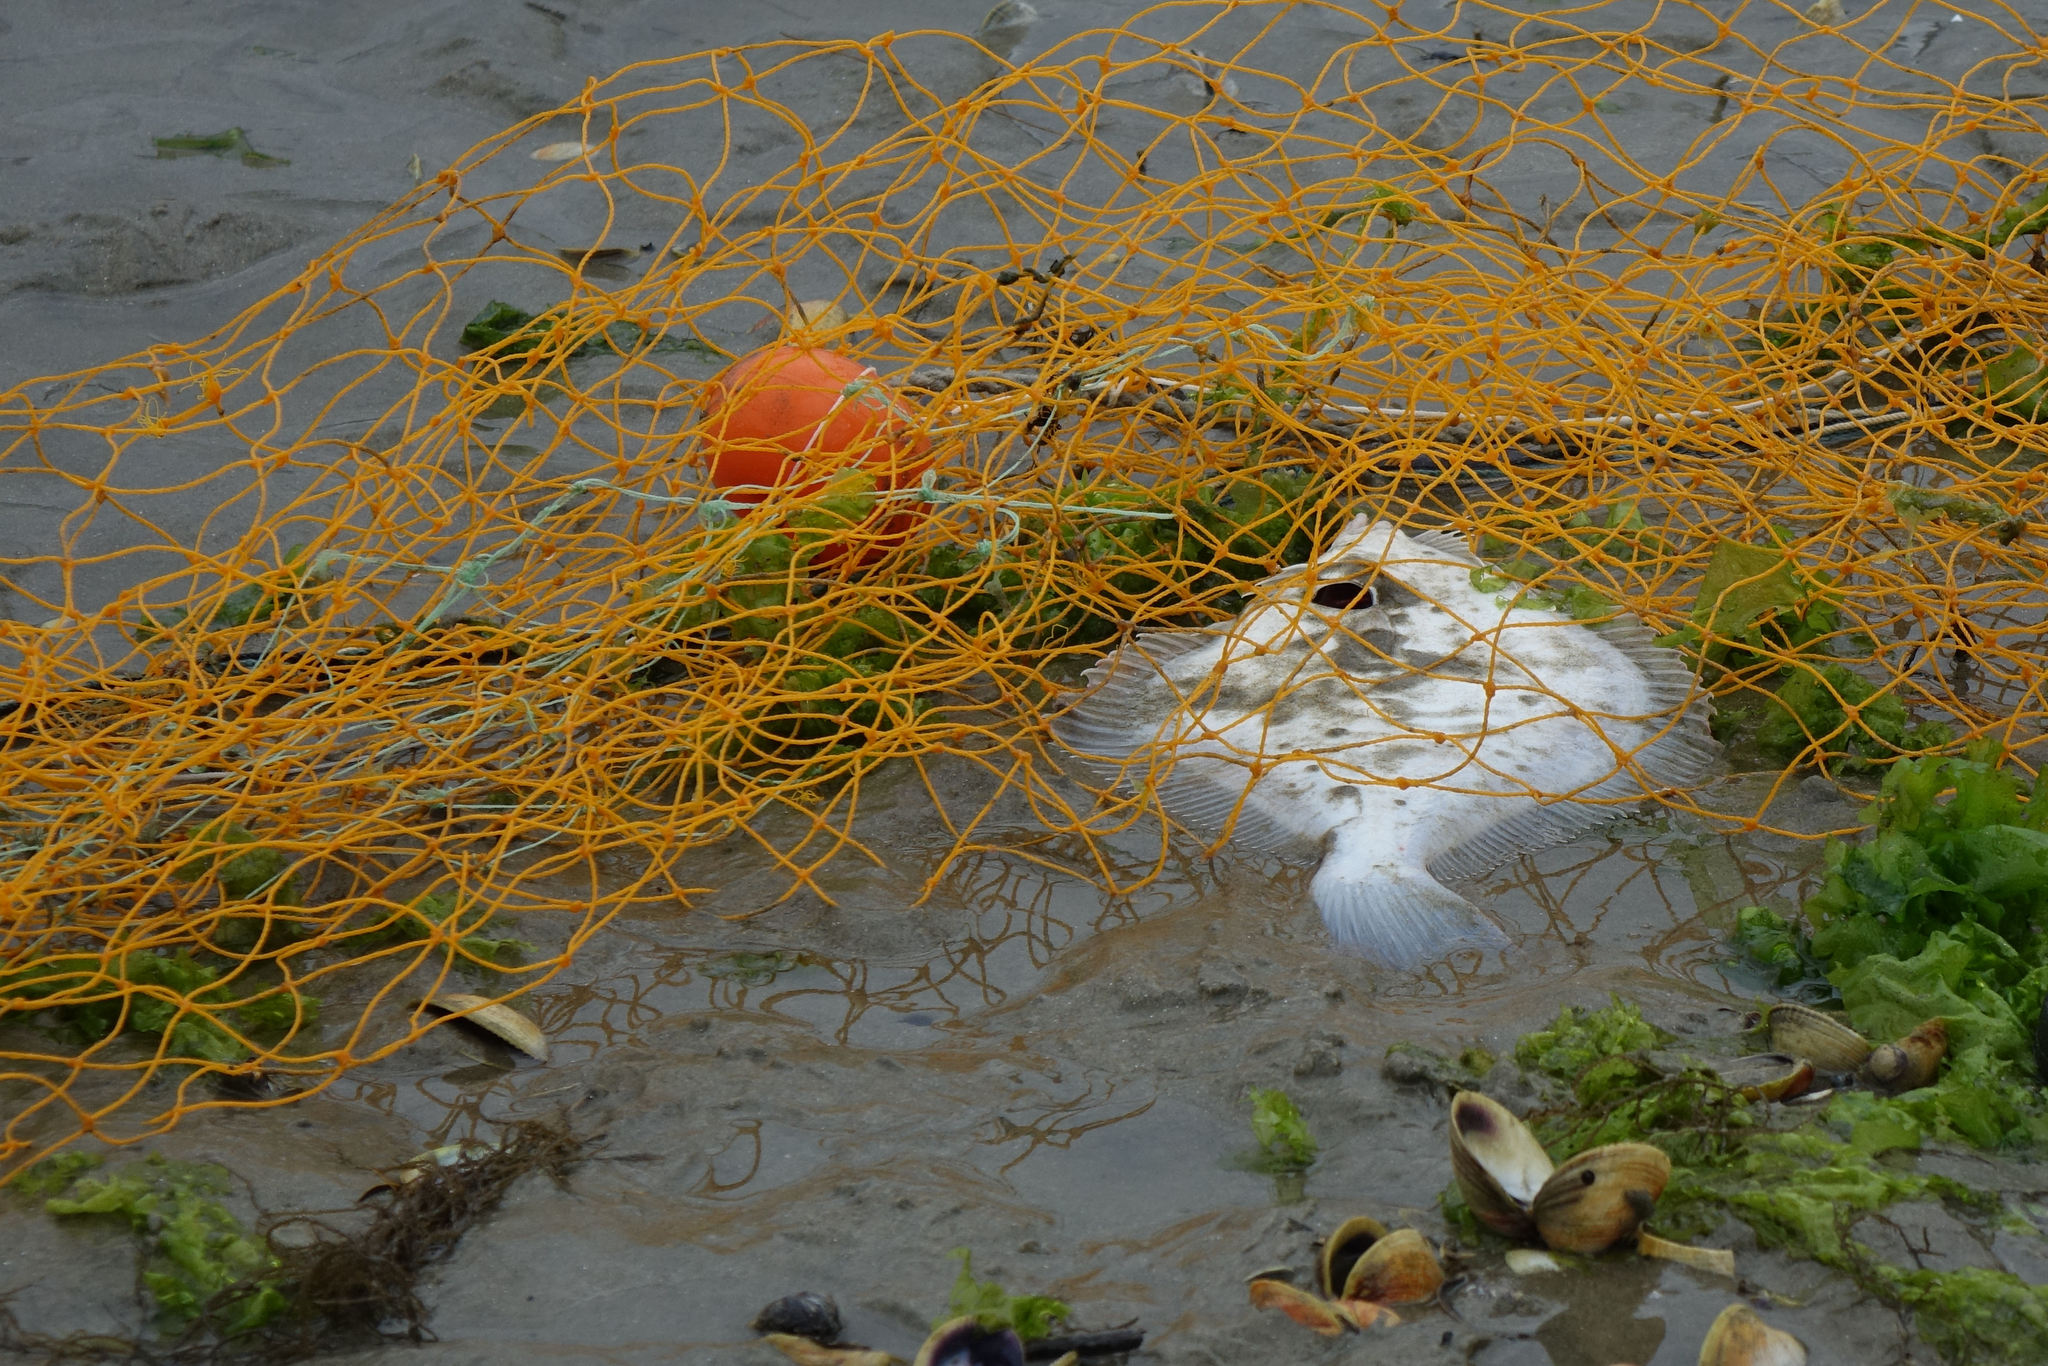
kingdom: Animalia
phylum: Chordata
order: Pleuronectiformes
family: Pleuronectidae
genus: Rhombosolea
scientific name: Rhombosolea
